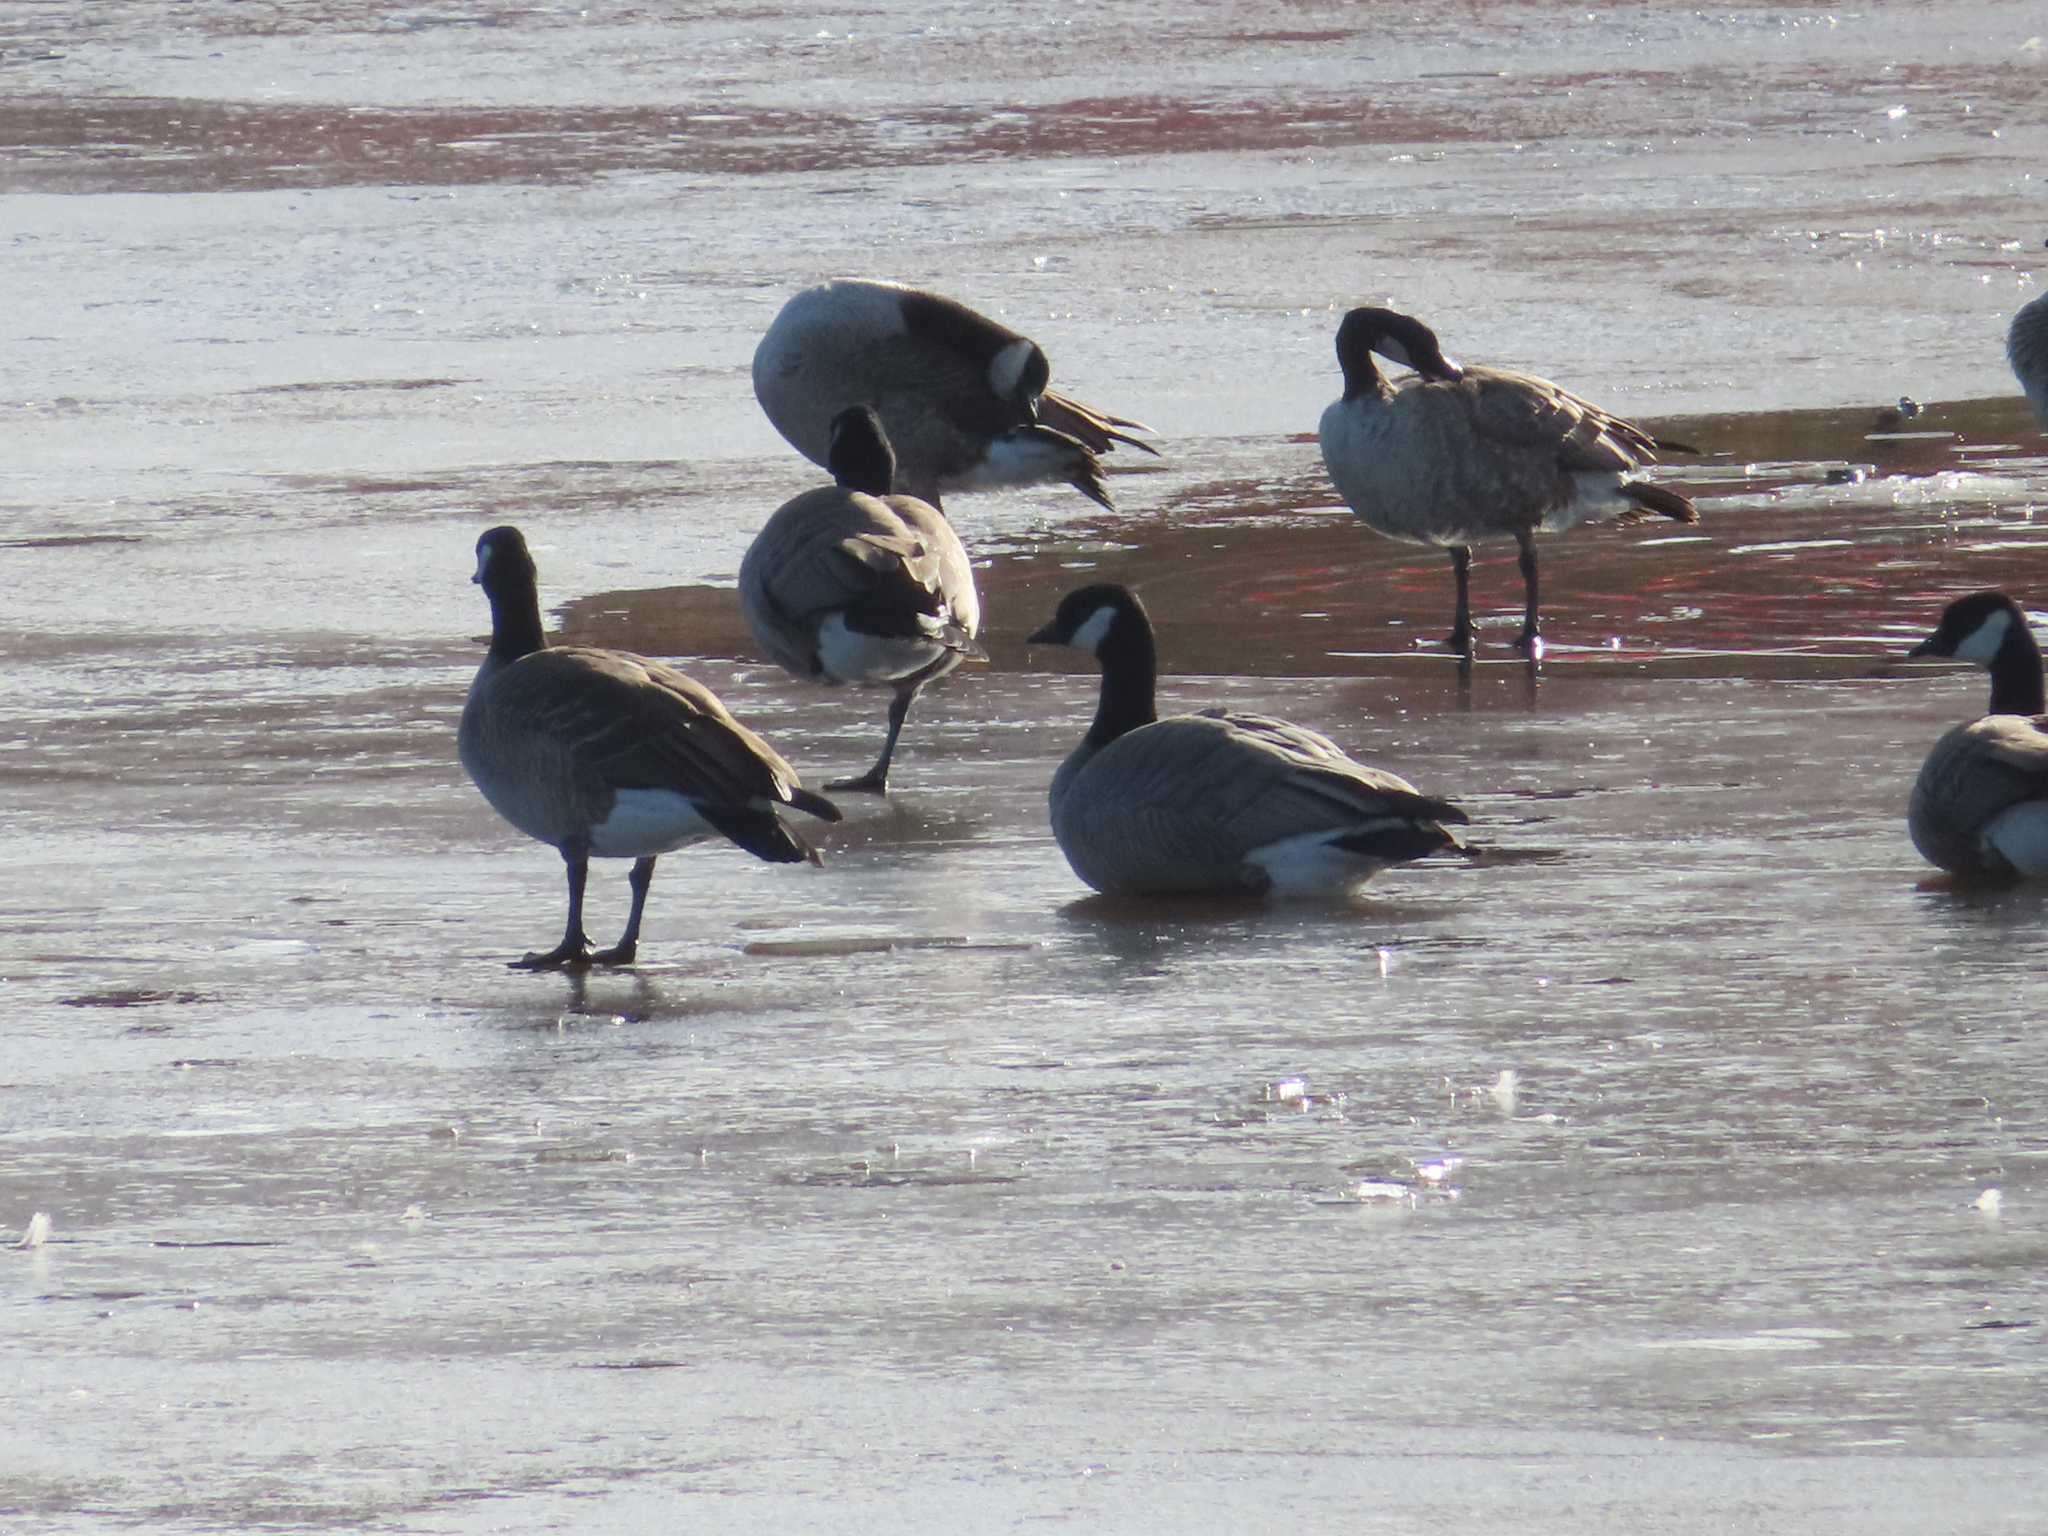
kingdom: Animalia
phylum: Chordata
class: Aves
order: Anseriformes
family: Anatidae
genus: Branta
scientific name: Branta hutchinsii
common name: Cackling goose
